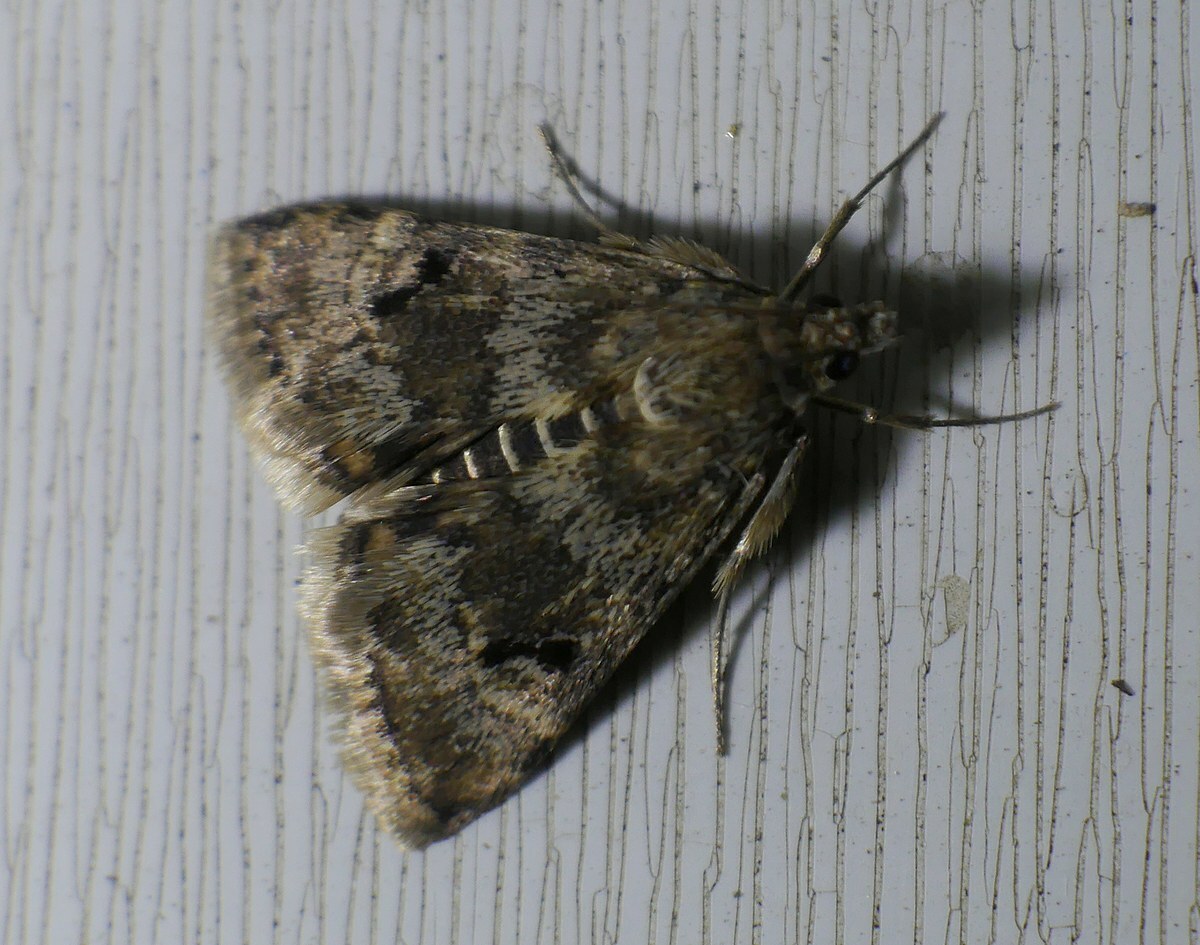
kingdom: Animalia
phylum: Arthropoda
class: Insecta
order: Lepidoptera
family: Crambidae
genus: Noctuelia
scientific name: Noctuelia Aporodes floralis
